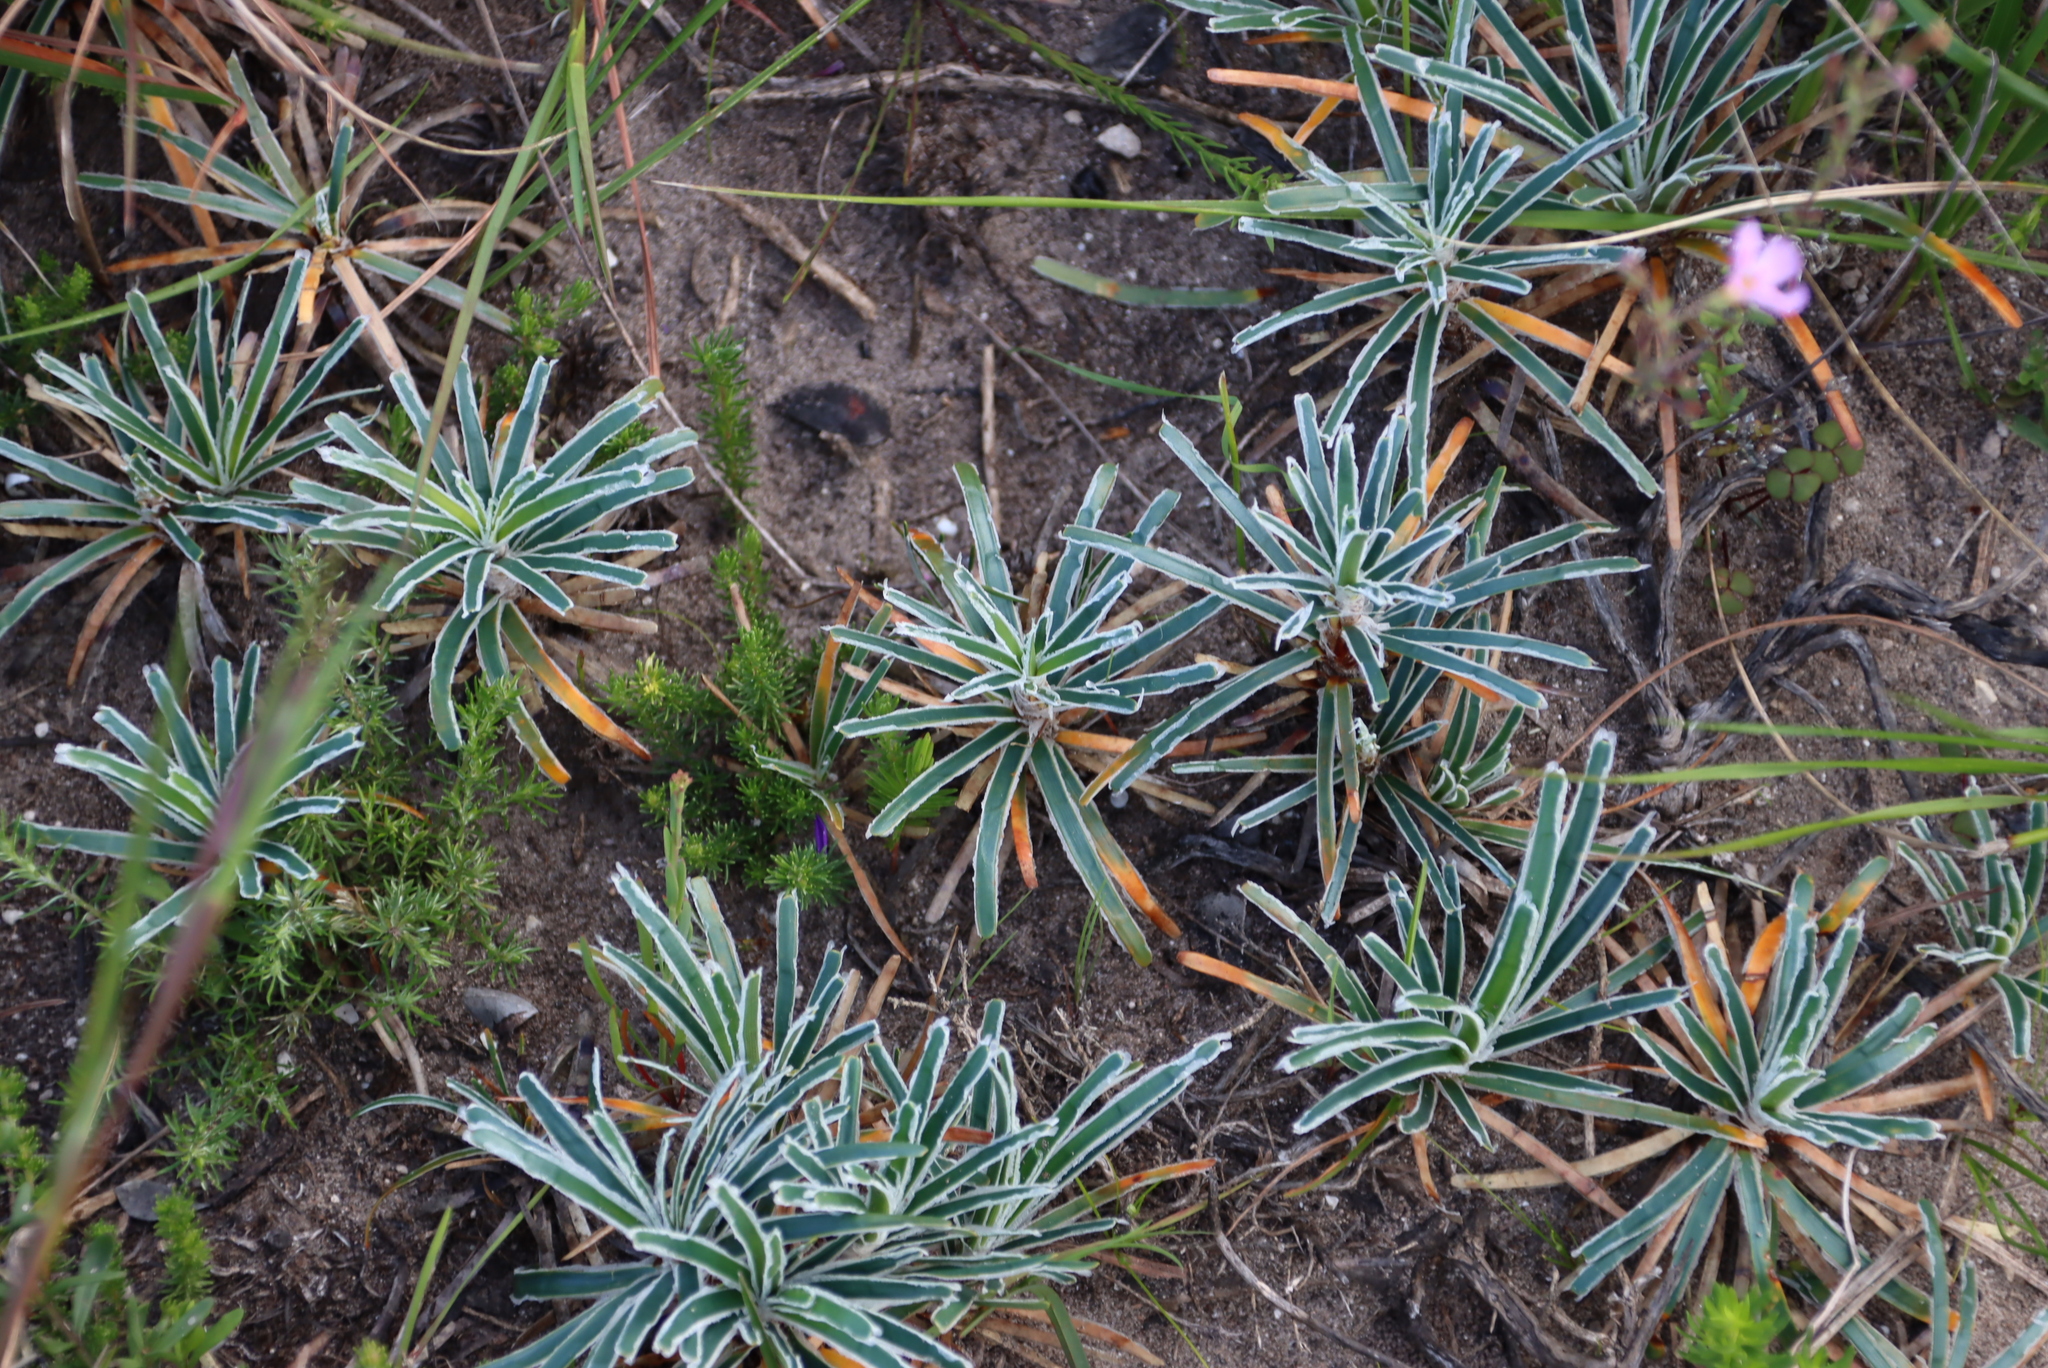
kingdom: Plantae
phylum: Tracheophyta
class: Liliopsida
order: Poales
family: Cyperaceae
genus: Ficinia
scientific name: Ficinia truncata
